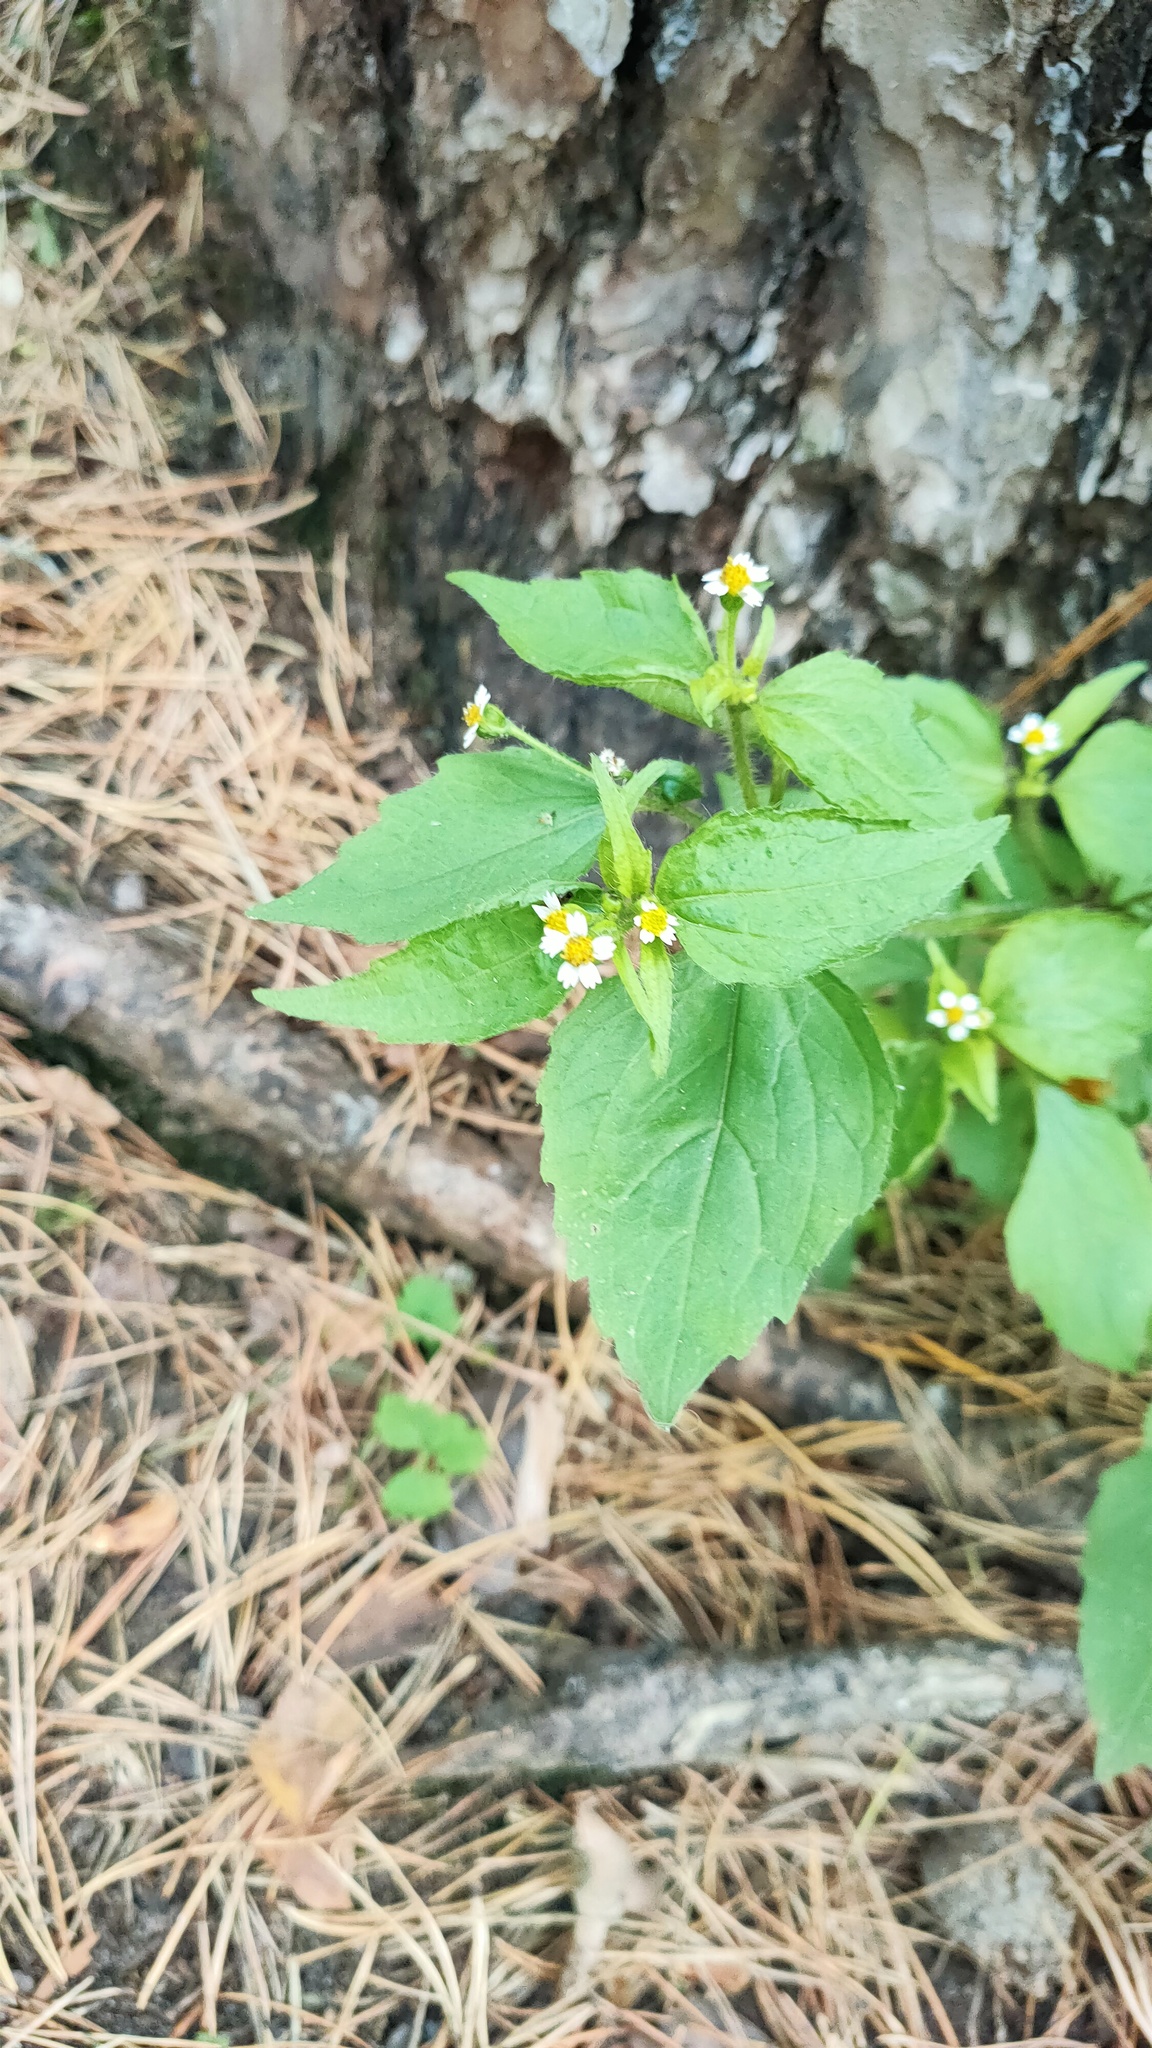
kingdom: Plantae
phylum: Tracheophyta
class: Magnoliopsida
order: Asterales
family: Asteraceae
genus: Galinsoga
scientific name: Galinsoga quadriradiata
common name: Shaggy soldier
